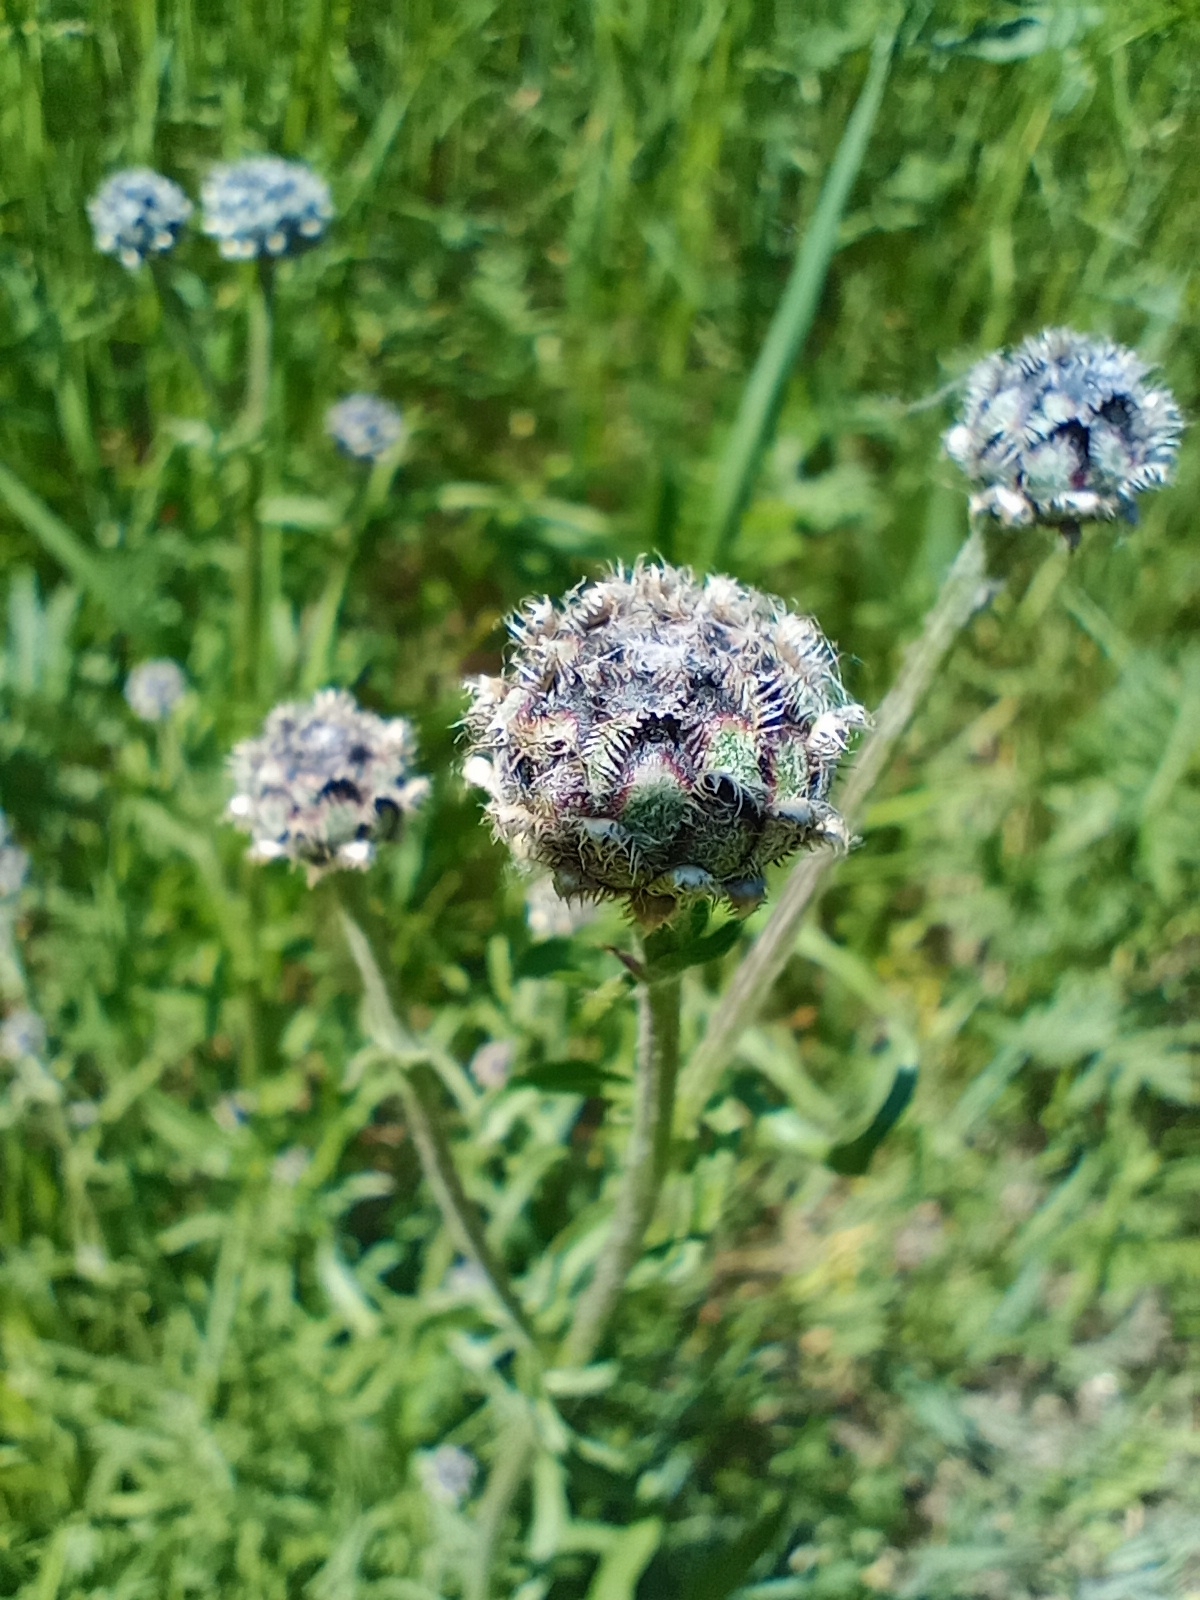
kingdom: Plantae
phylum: Tracheophyta
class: Magnoliopsida
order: Asterales
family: Asteraceae
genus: Centaurea
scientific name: Centaurea scabiosa
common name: Greater knapweed
